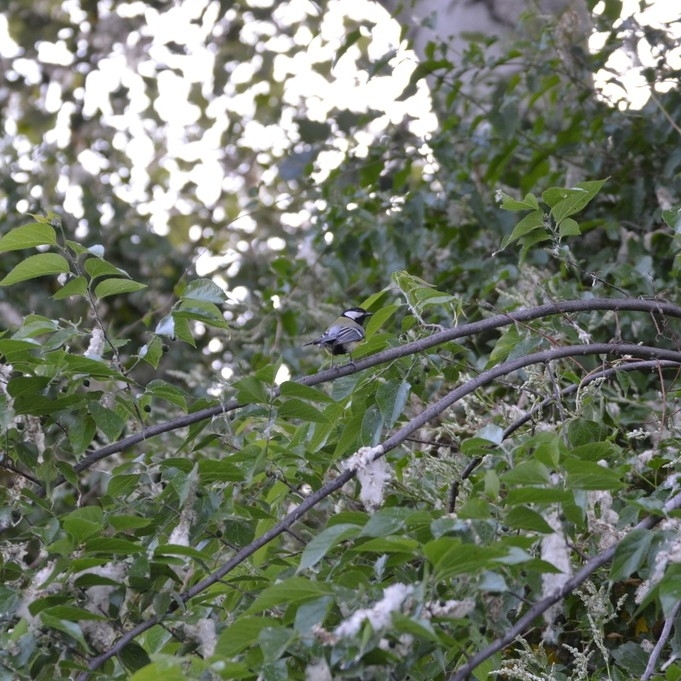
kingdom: Animalia
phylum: Chordata
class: Aves
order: Passeriformes
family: Paridae
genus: Parus
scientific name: Parus major
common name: Great tit
